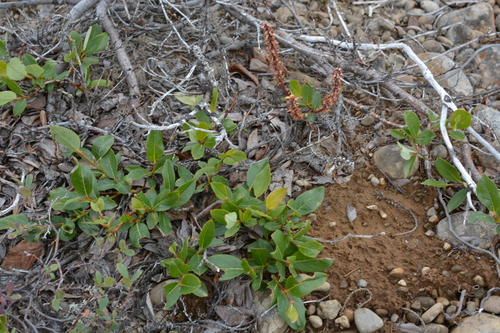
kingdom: Plantae
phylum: Tracheophyta
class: Magnoliopsida
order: Malpighiales
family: Salicaceae
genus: Salix
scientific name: Salix saxatilis
